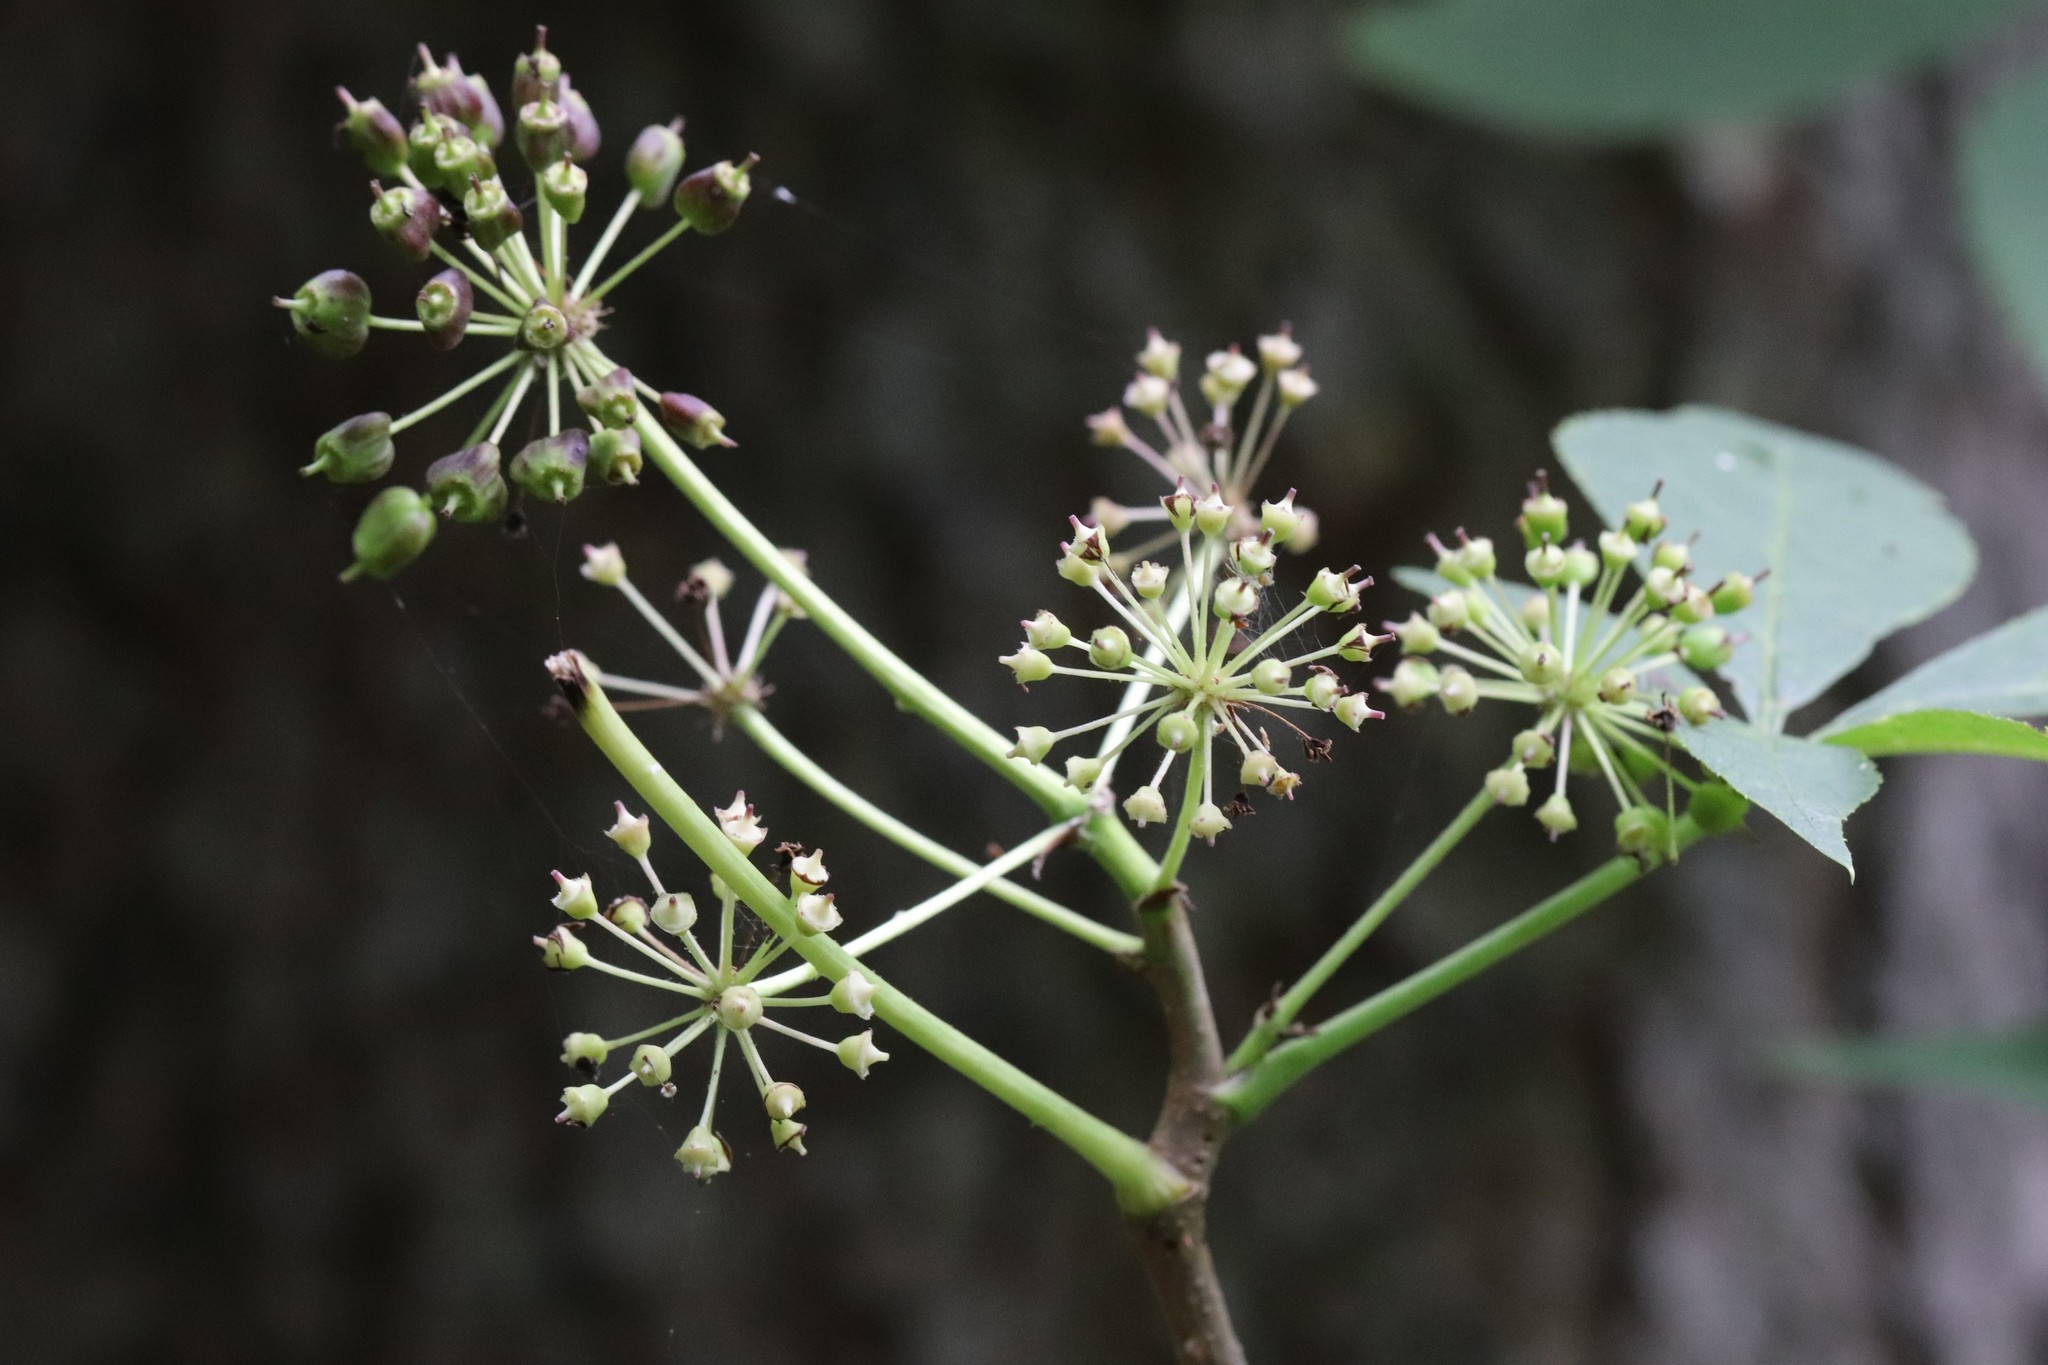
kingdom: Plantae
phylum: Tracheophyta
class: Magnoliopsida
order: Apiales
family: Araliaceae
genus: Eleutherococcus
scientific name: Eleutherococcus senticosus
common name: Siberian-ginseng
